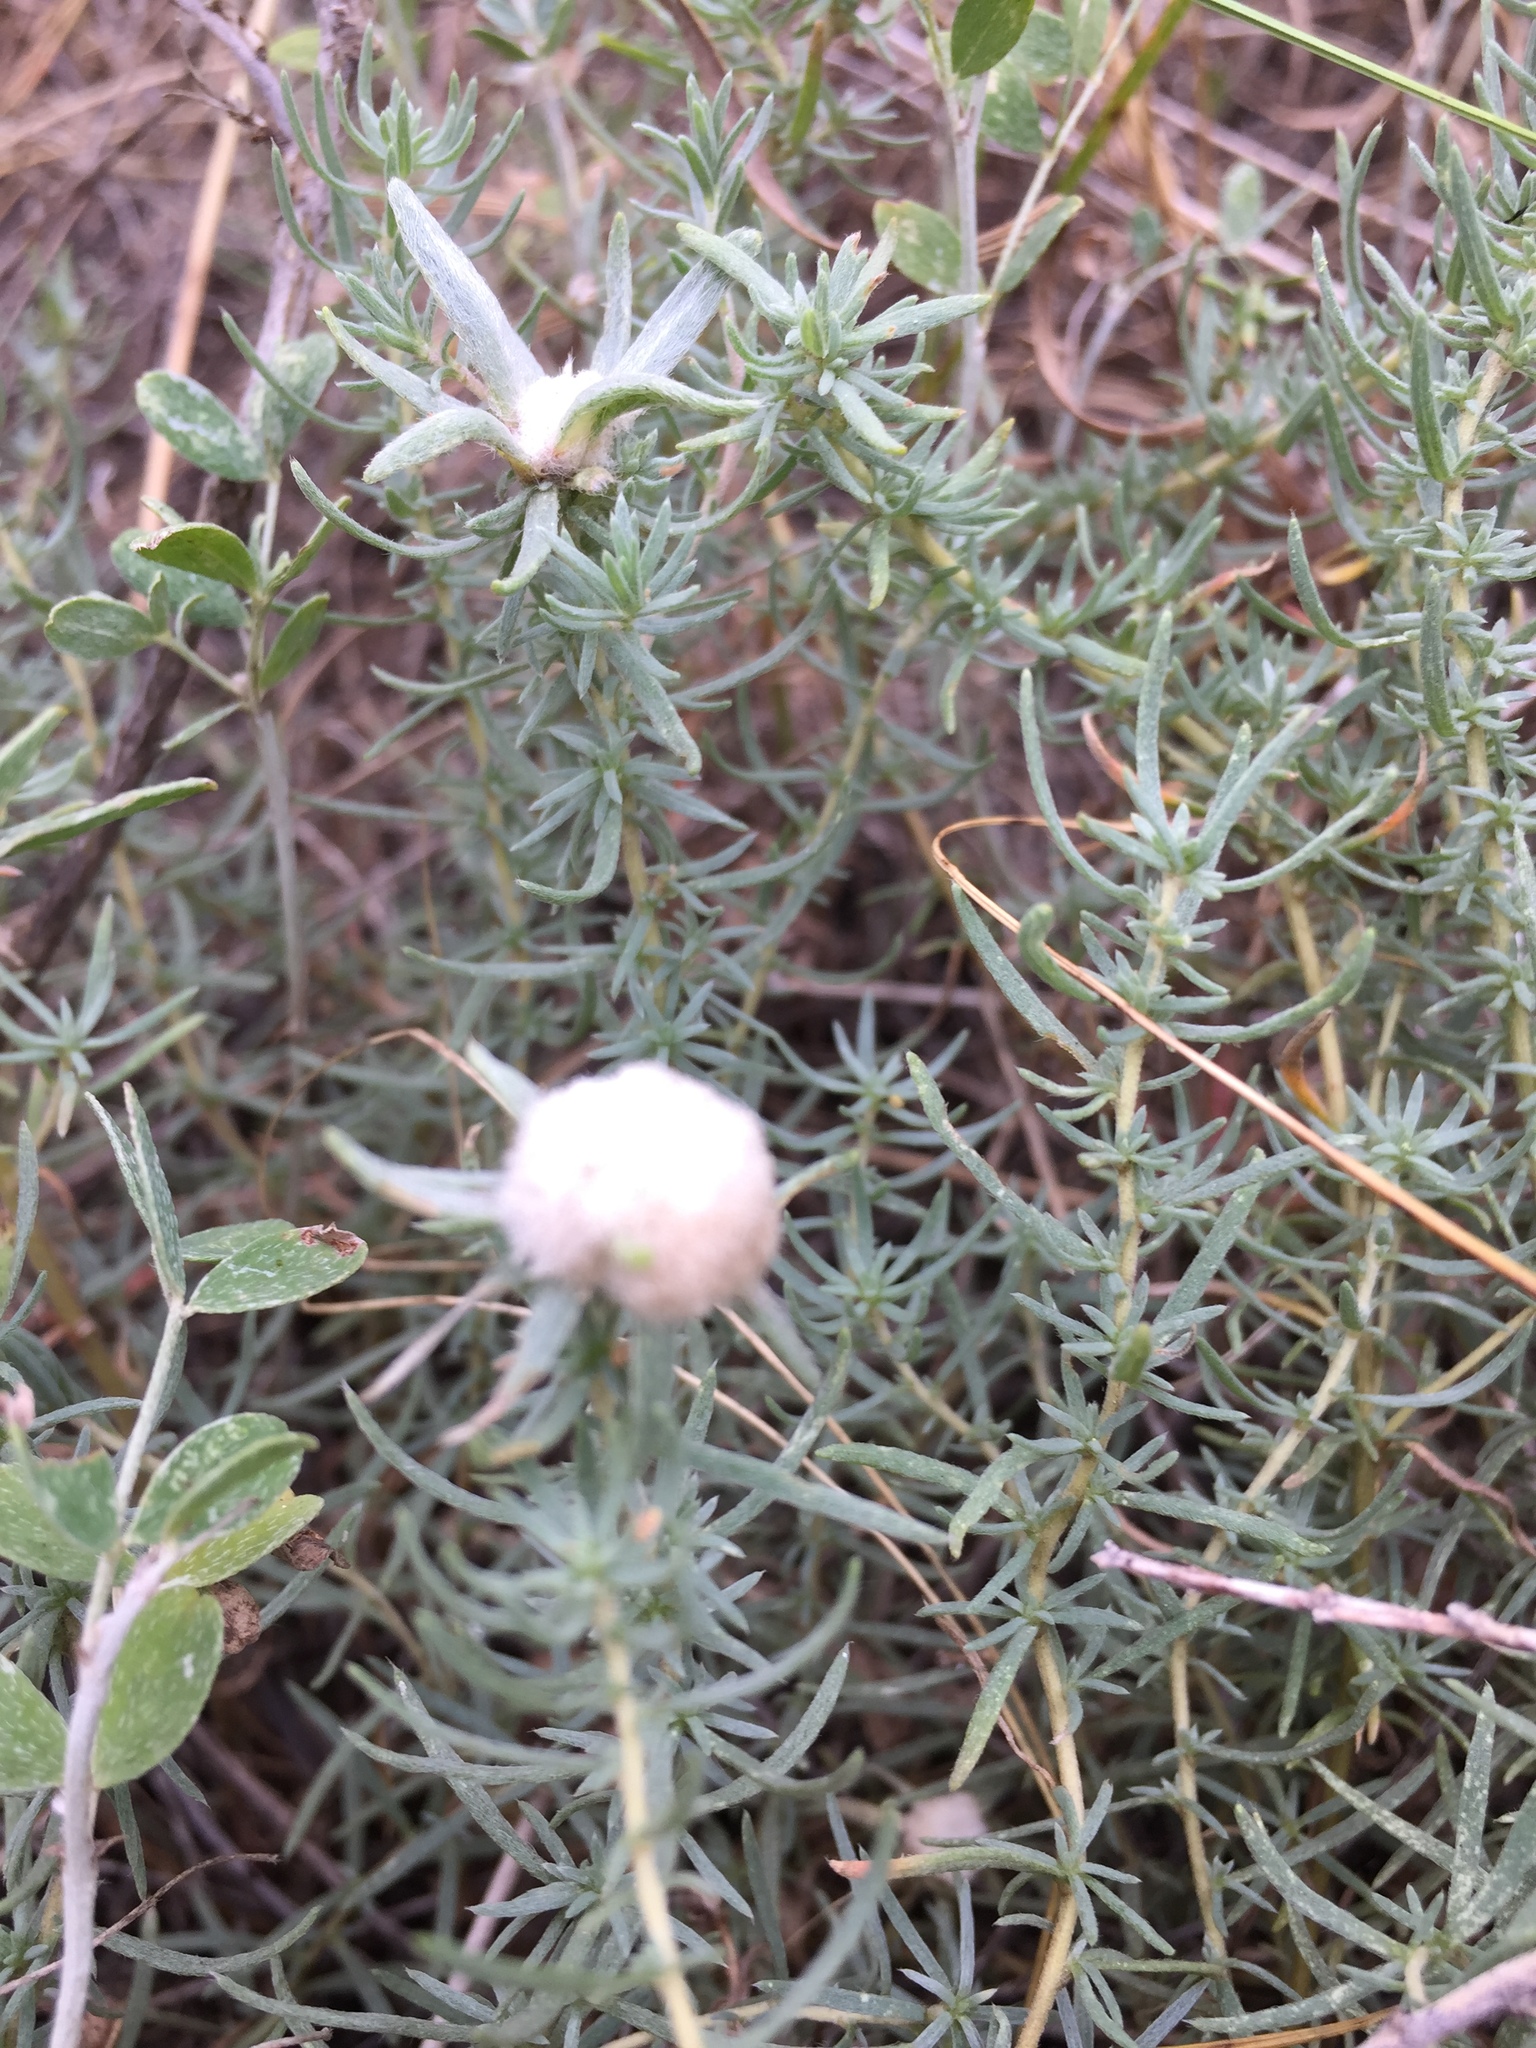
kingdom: Plantae
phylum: Tracheophyta
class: Magnoliopsida
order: Caryophyllales
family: Amaranthaceae
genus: Bassia
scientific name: Bassia prostrata
